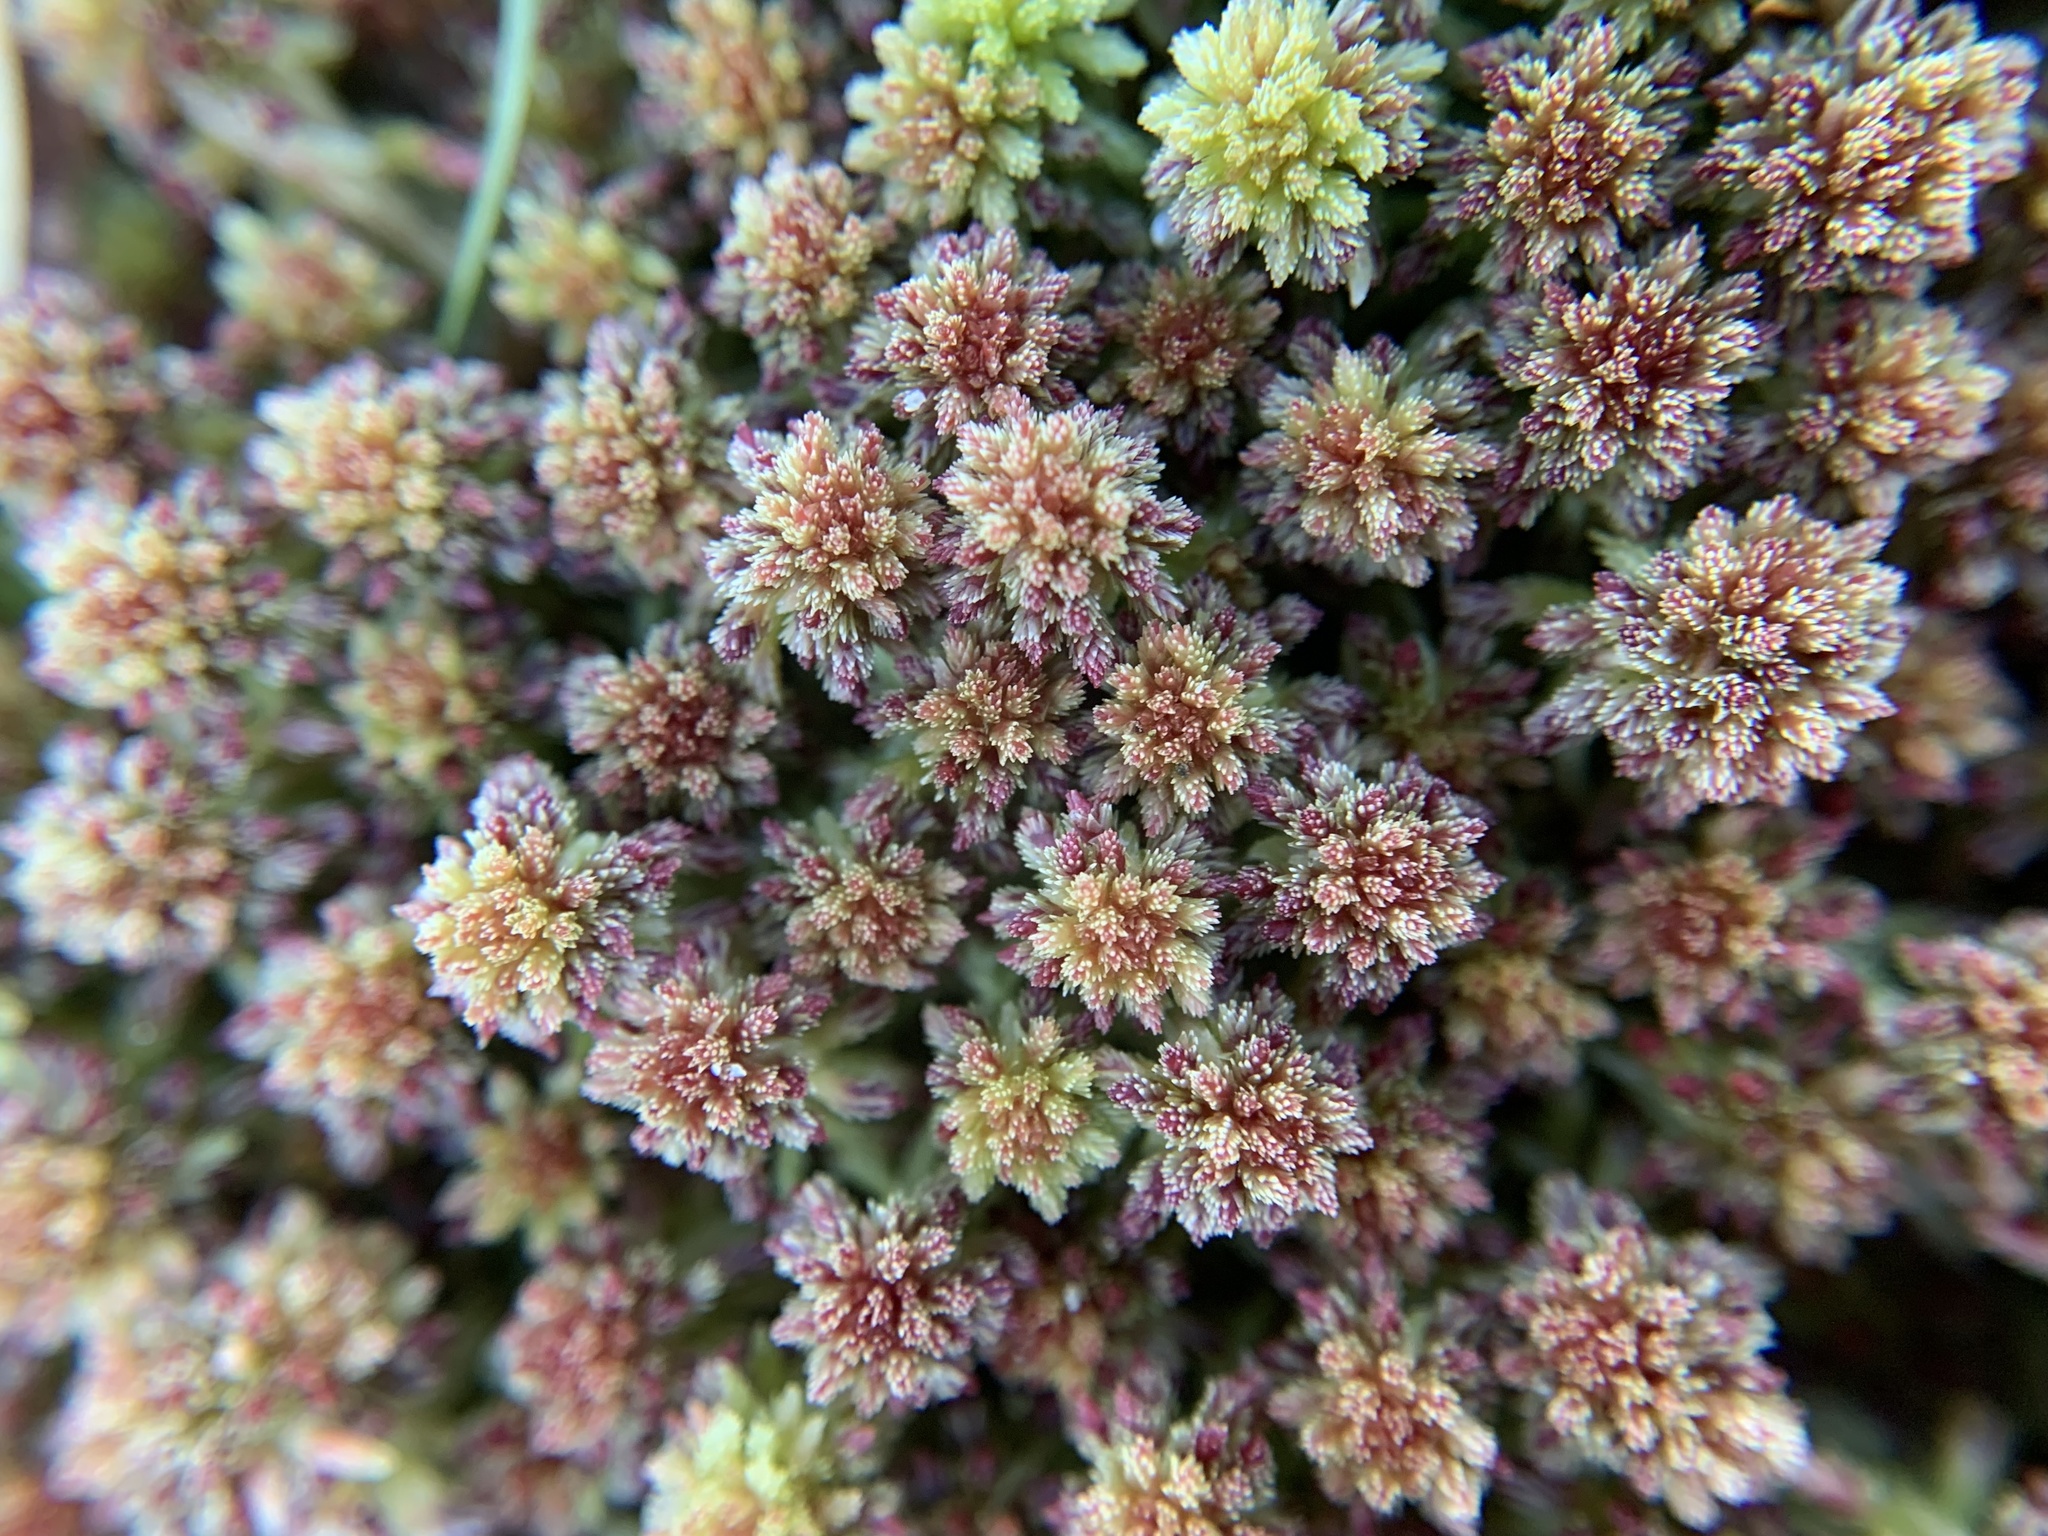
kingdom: Plantae
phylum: Bryophyta
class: Sphagnopsida
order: Sphagnales
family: Sphagnaceae
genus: Sphagnum
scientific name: Sphagnum capillifolium
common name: Small red peat moss
